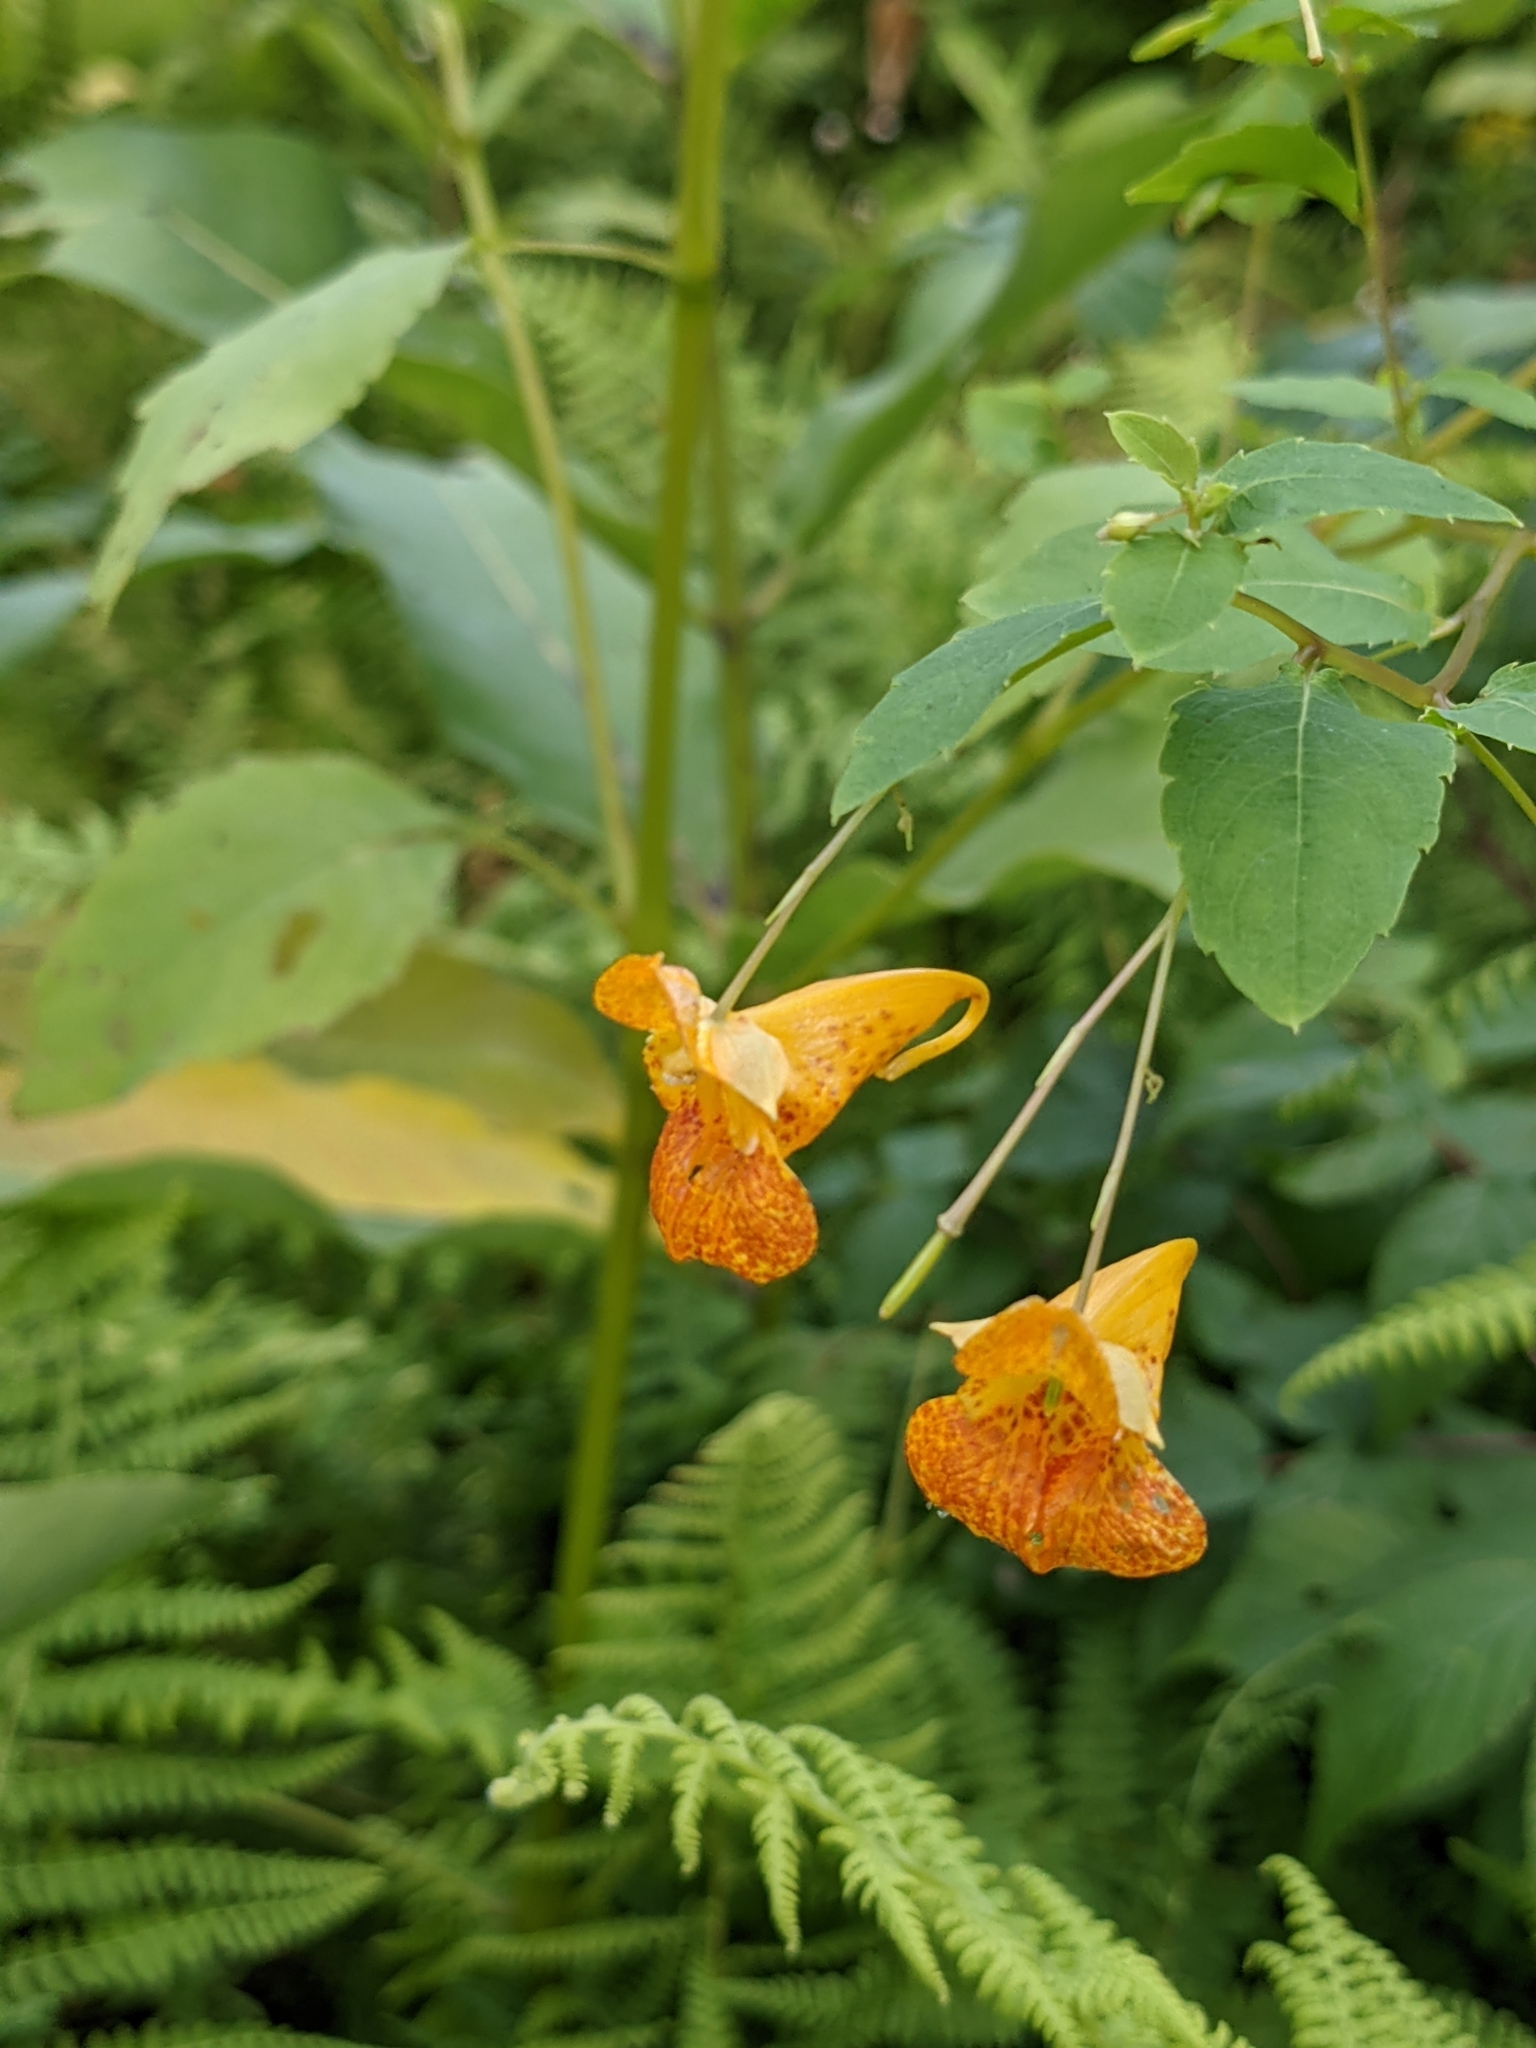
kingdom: Plantae
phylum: Tracheophyta
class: Magnoliopsida
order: Ericales
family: Balsaminaceae
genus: Impatiens
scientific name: Impatiens capensis
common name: Orange balsam
